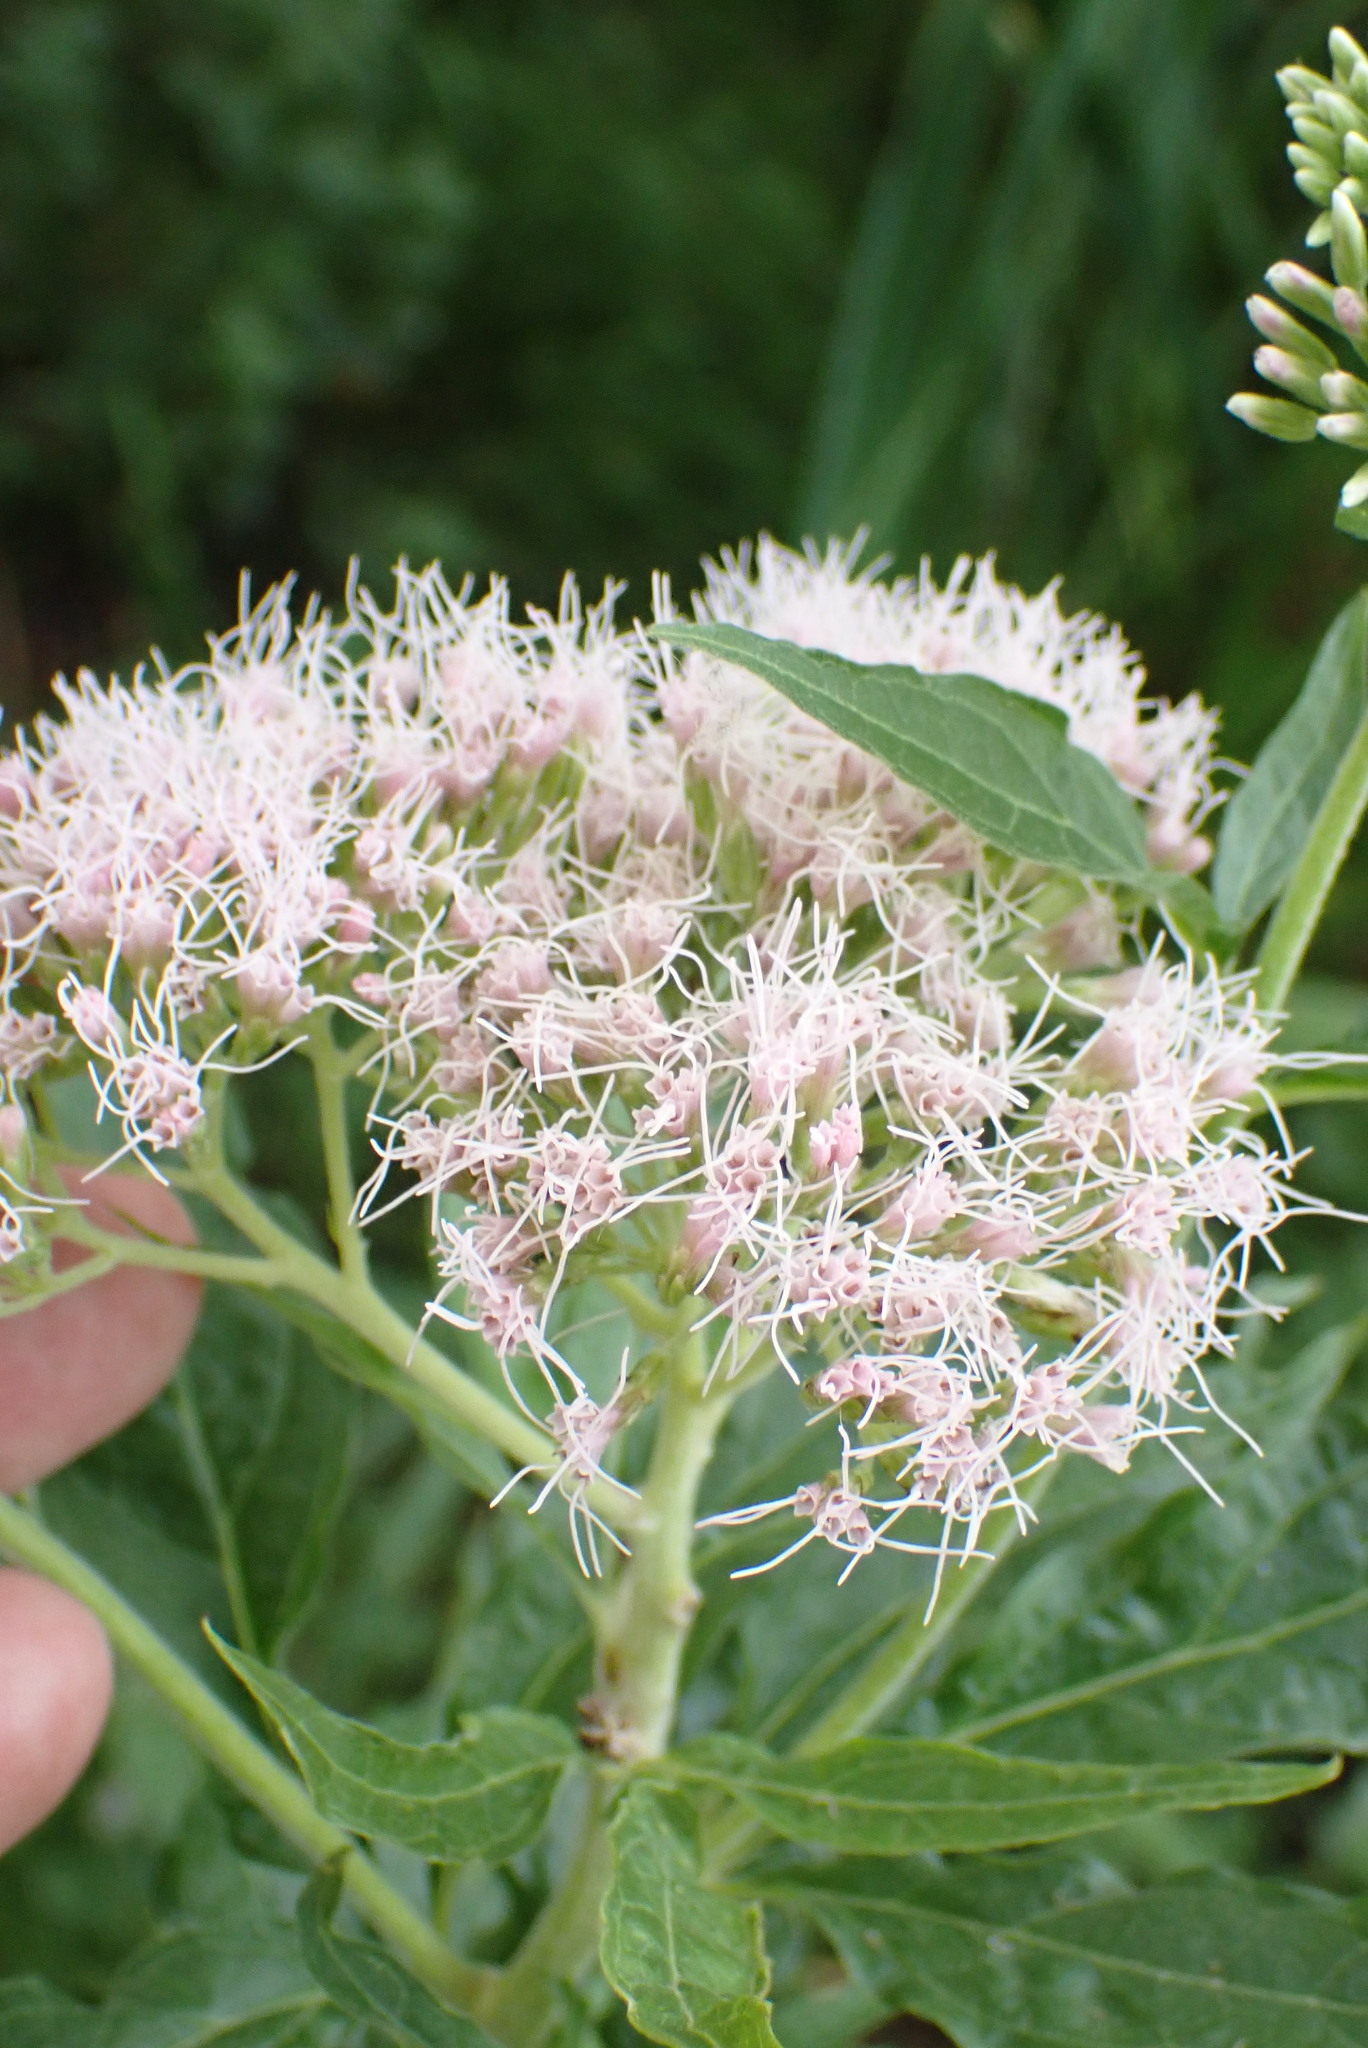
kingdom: Plantae
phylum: Tracheophyta
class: Magnoliopsida
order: Asterales
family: Asteraceae
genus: Eupatorium
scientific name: Eupatorium cannabinum
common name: Hemp-agrimony
